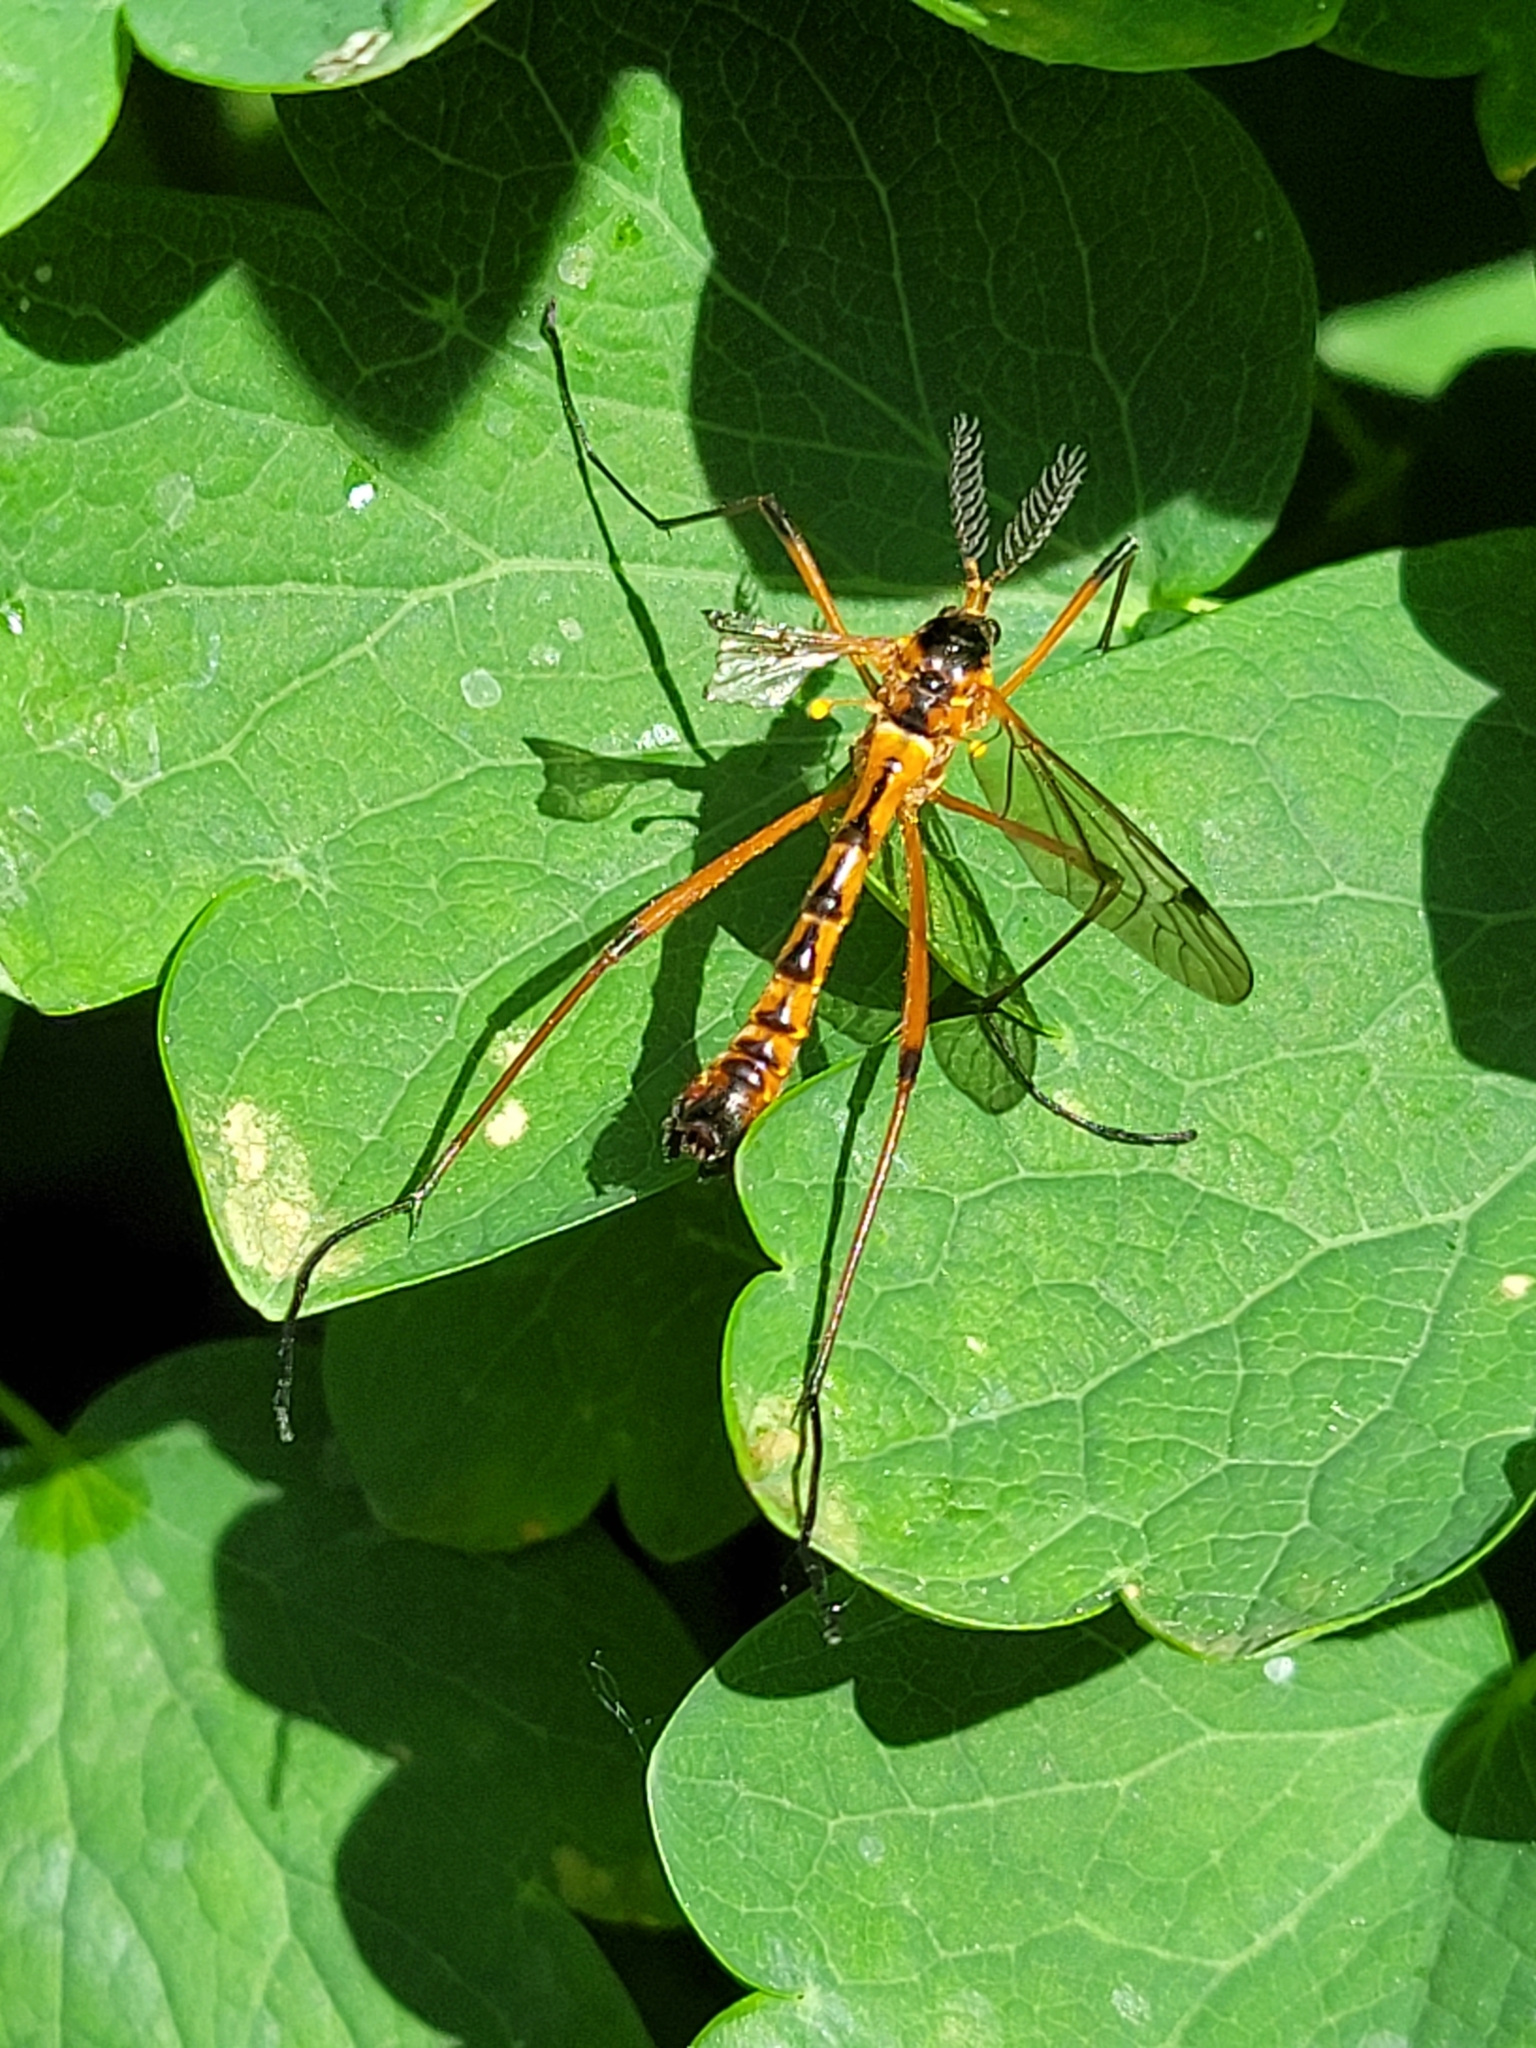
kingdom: Animalia
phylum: Arthropoda
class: Insecta
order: Diptera
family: Tipulidae
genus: Ctenophora
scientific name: Ctenophora pectinicornis
